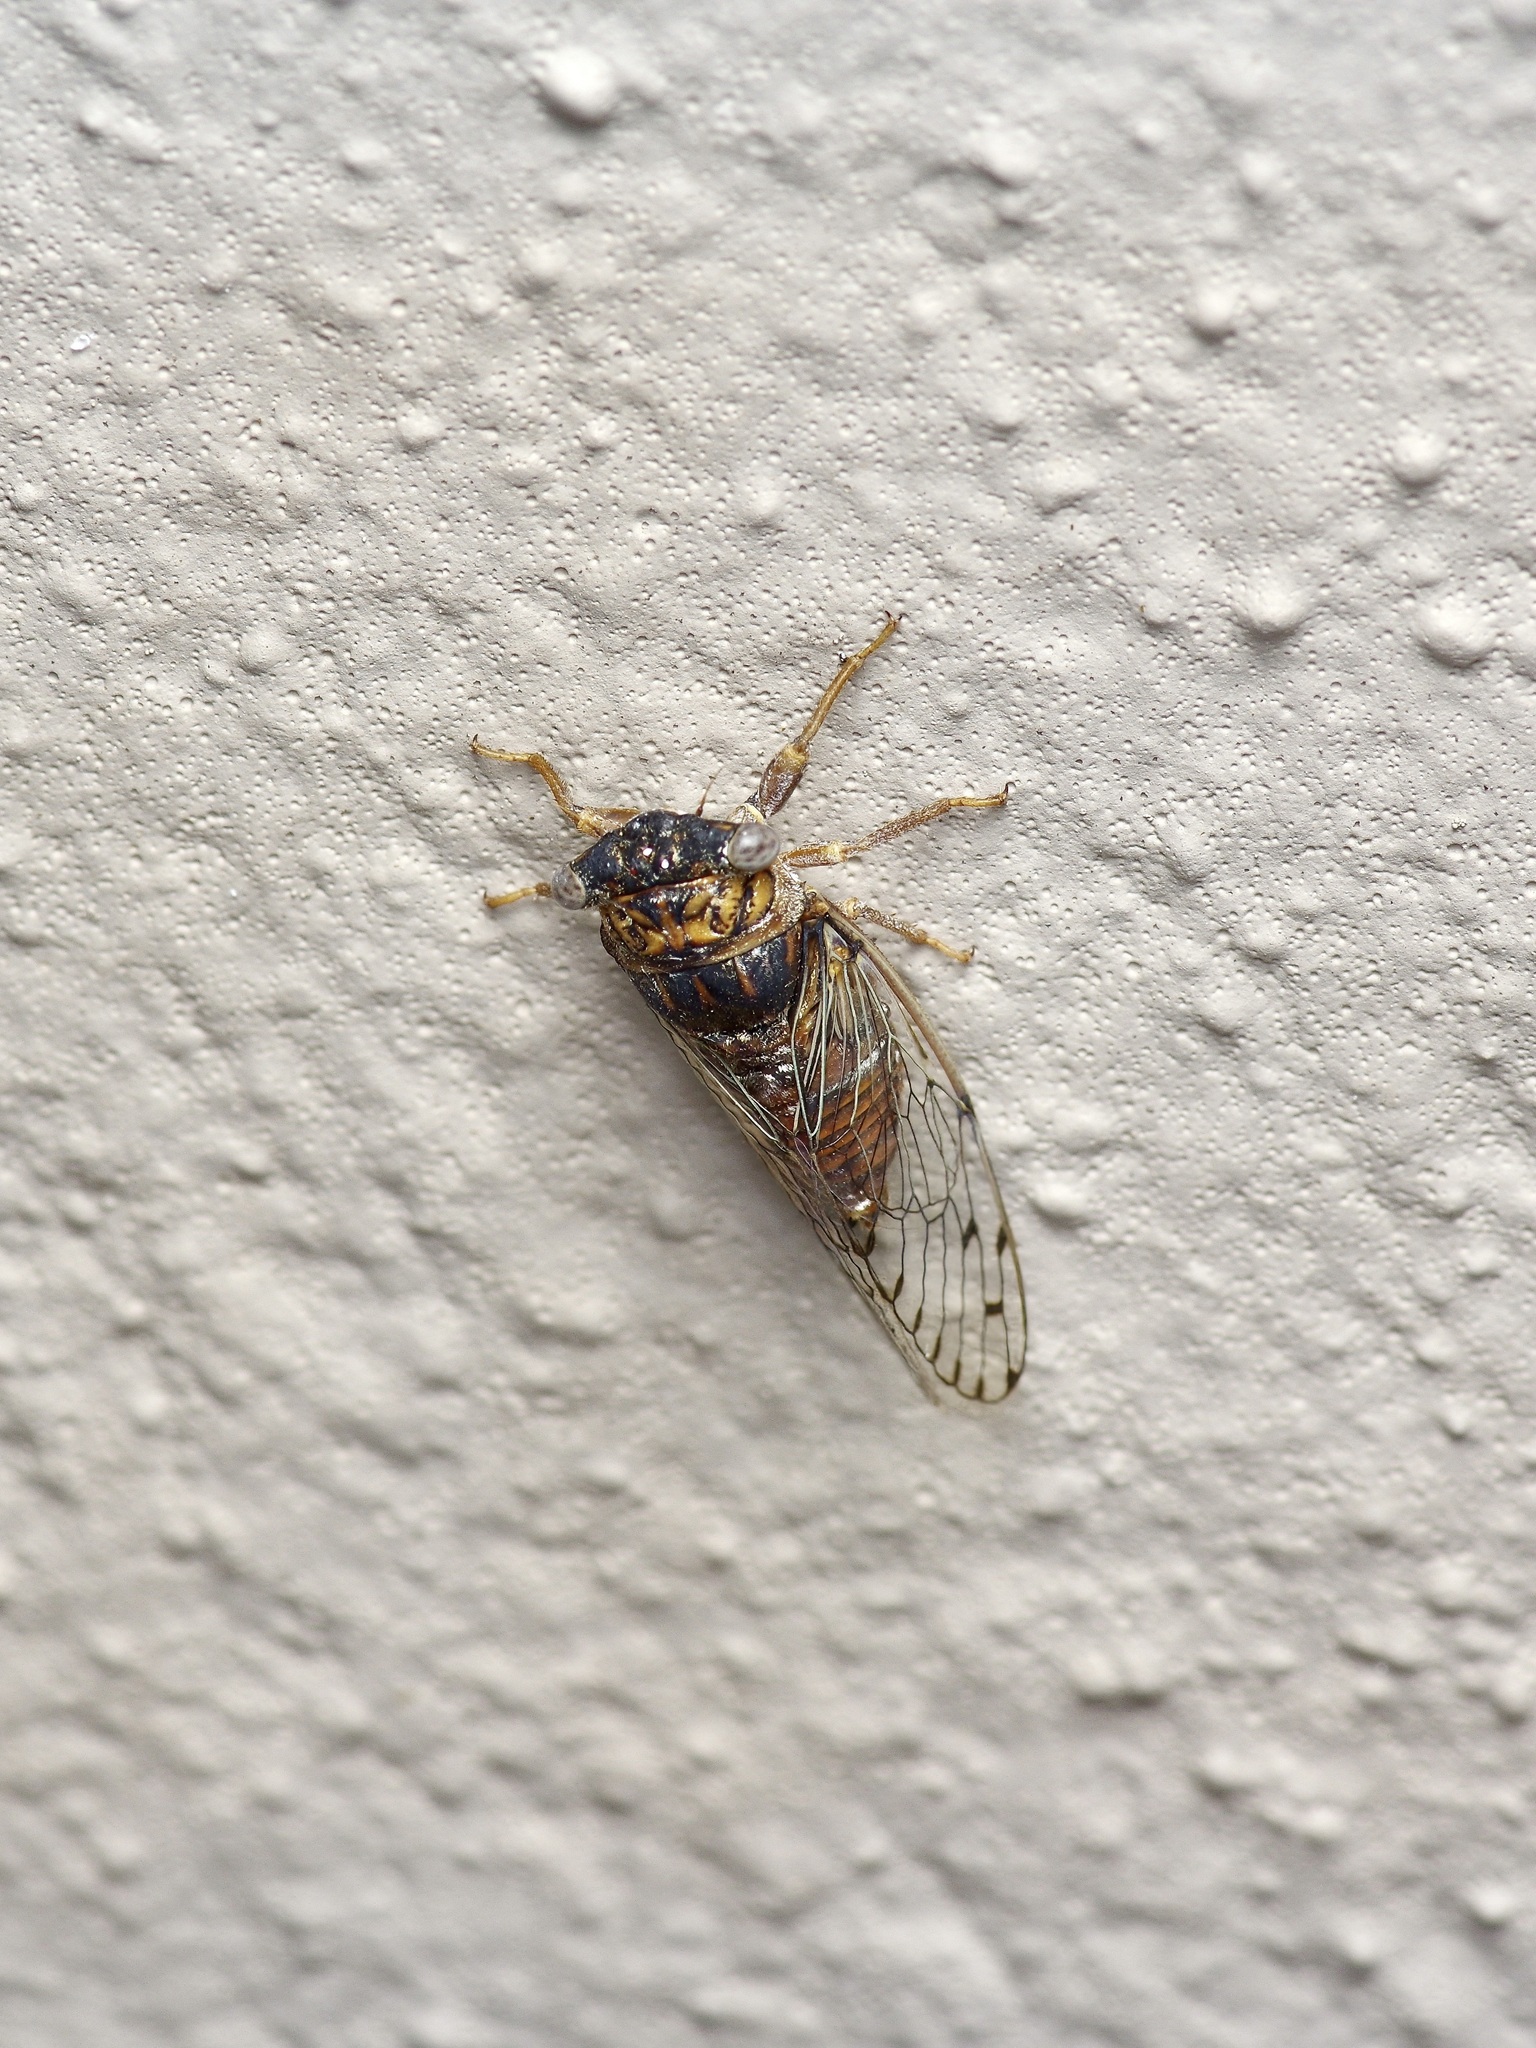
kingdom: Animalia
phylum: Arthropoda
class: Insecta
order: Hemiptera
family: Cicadidae
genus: Pacarina
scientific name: Pacarina puella
